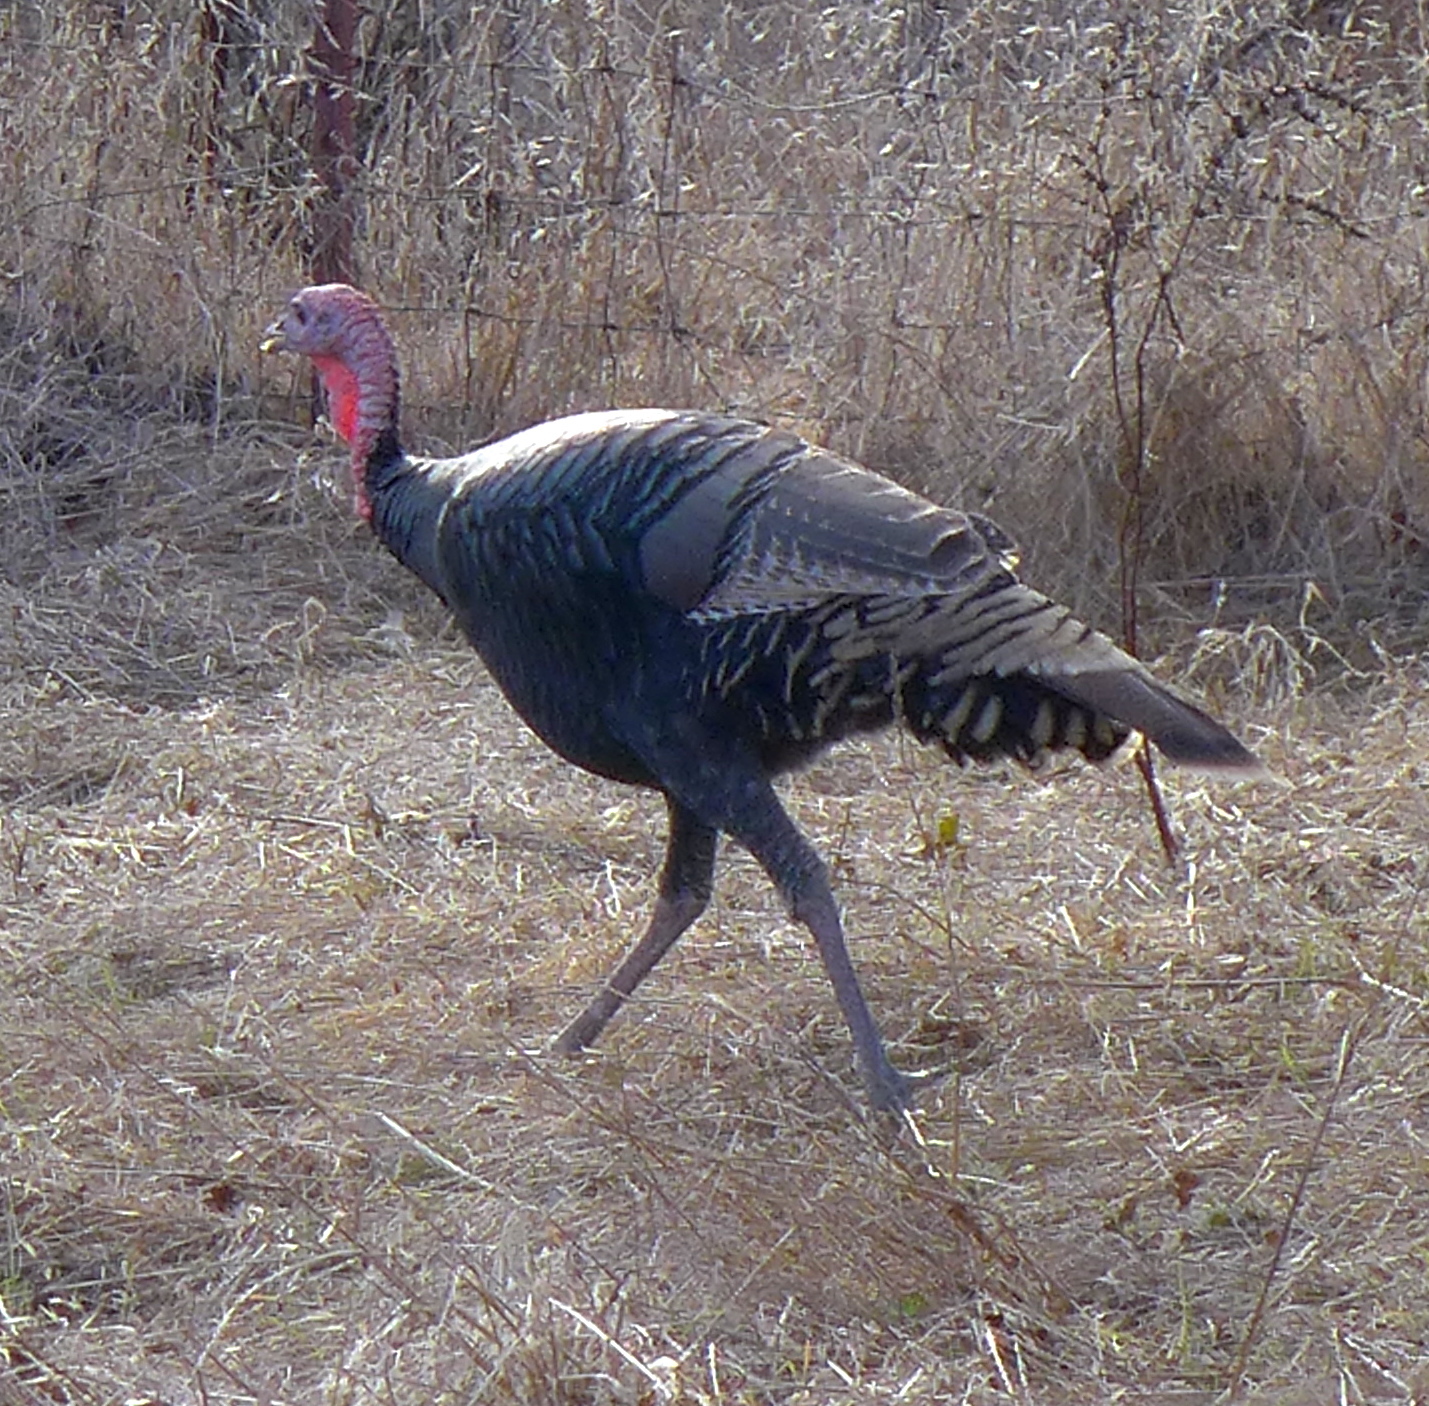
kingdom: Animalia
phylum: Chordata
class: Aves
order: Galliformes
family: Phasianidae
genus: Meleagris
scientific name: Meleagris gallopavo
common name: Wild turkey
